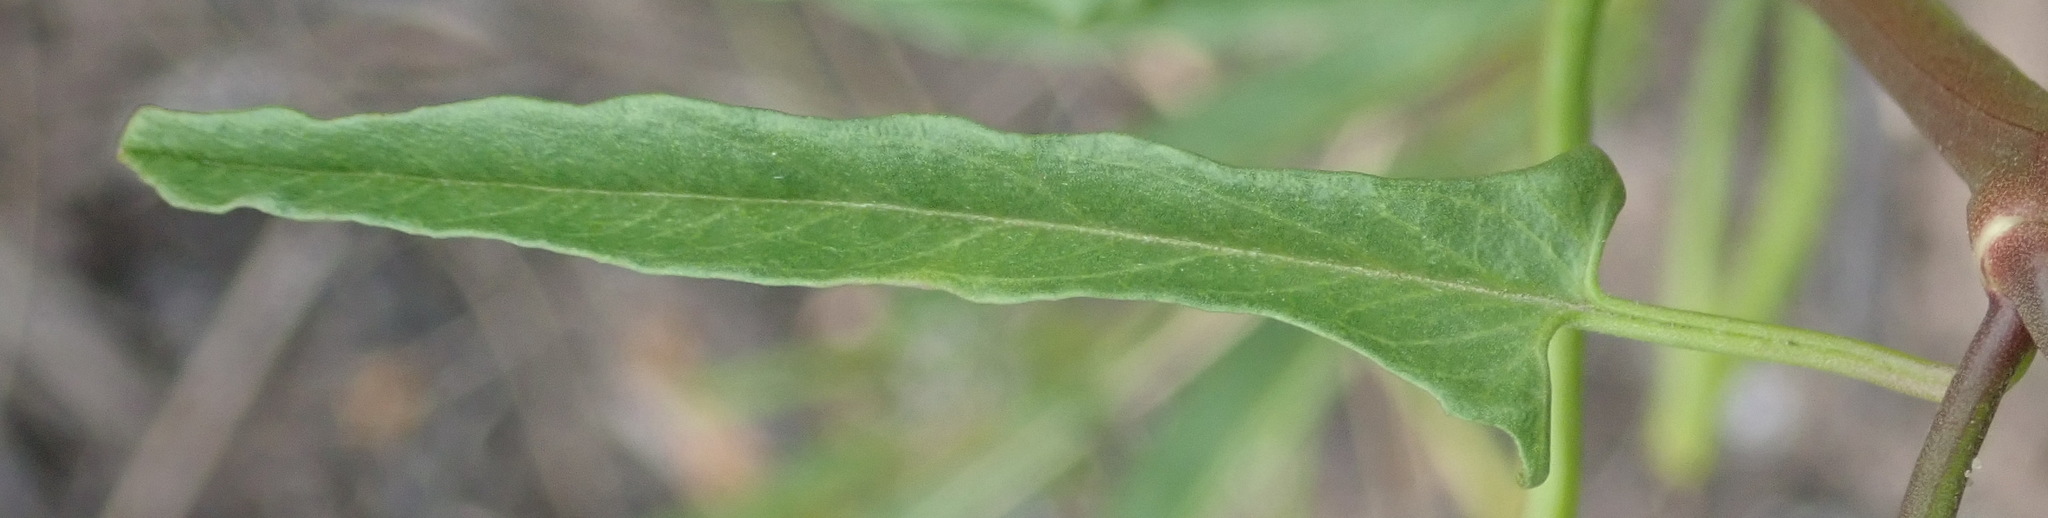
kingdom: Plantae
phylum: Tracheophyta
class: Magnoliopsida
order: Solanales
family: Convolvulaceae
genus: Convolvulus
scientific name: Convolvulus capensis
